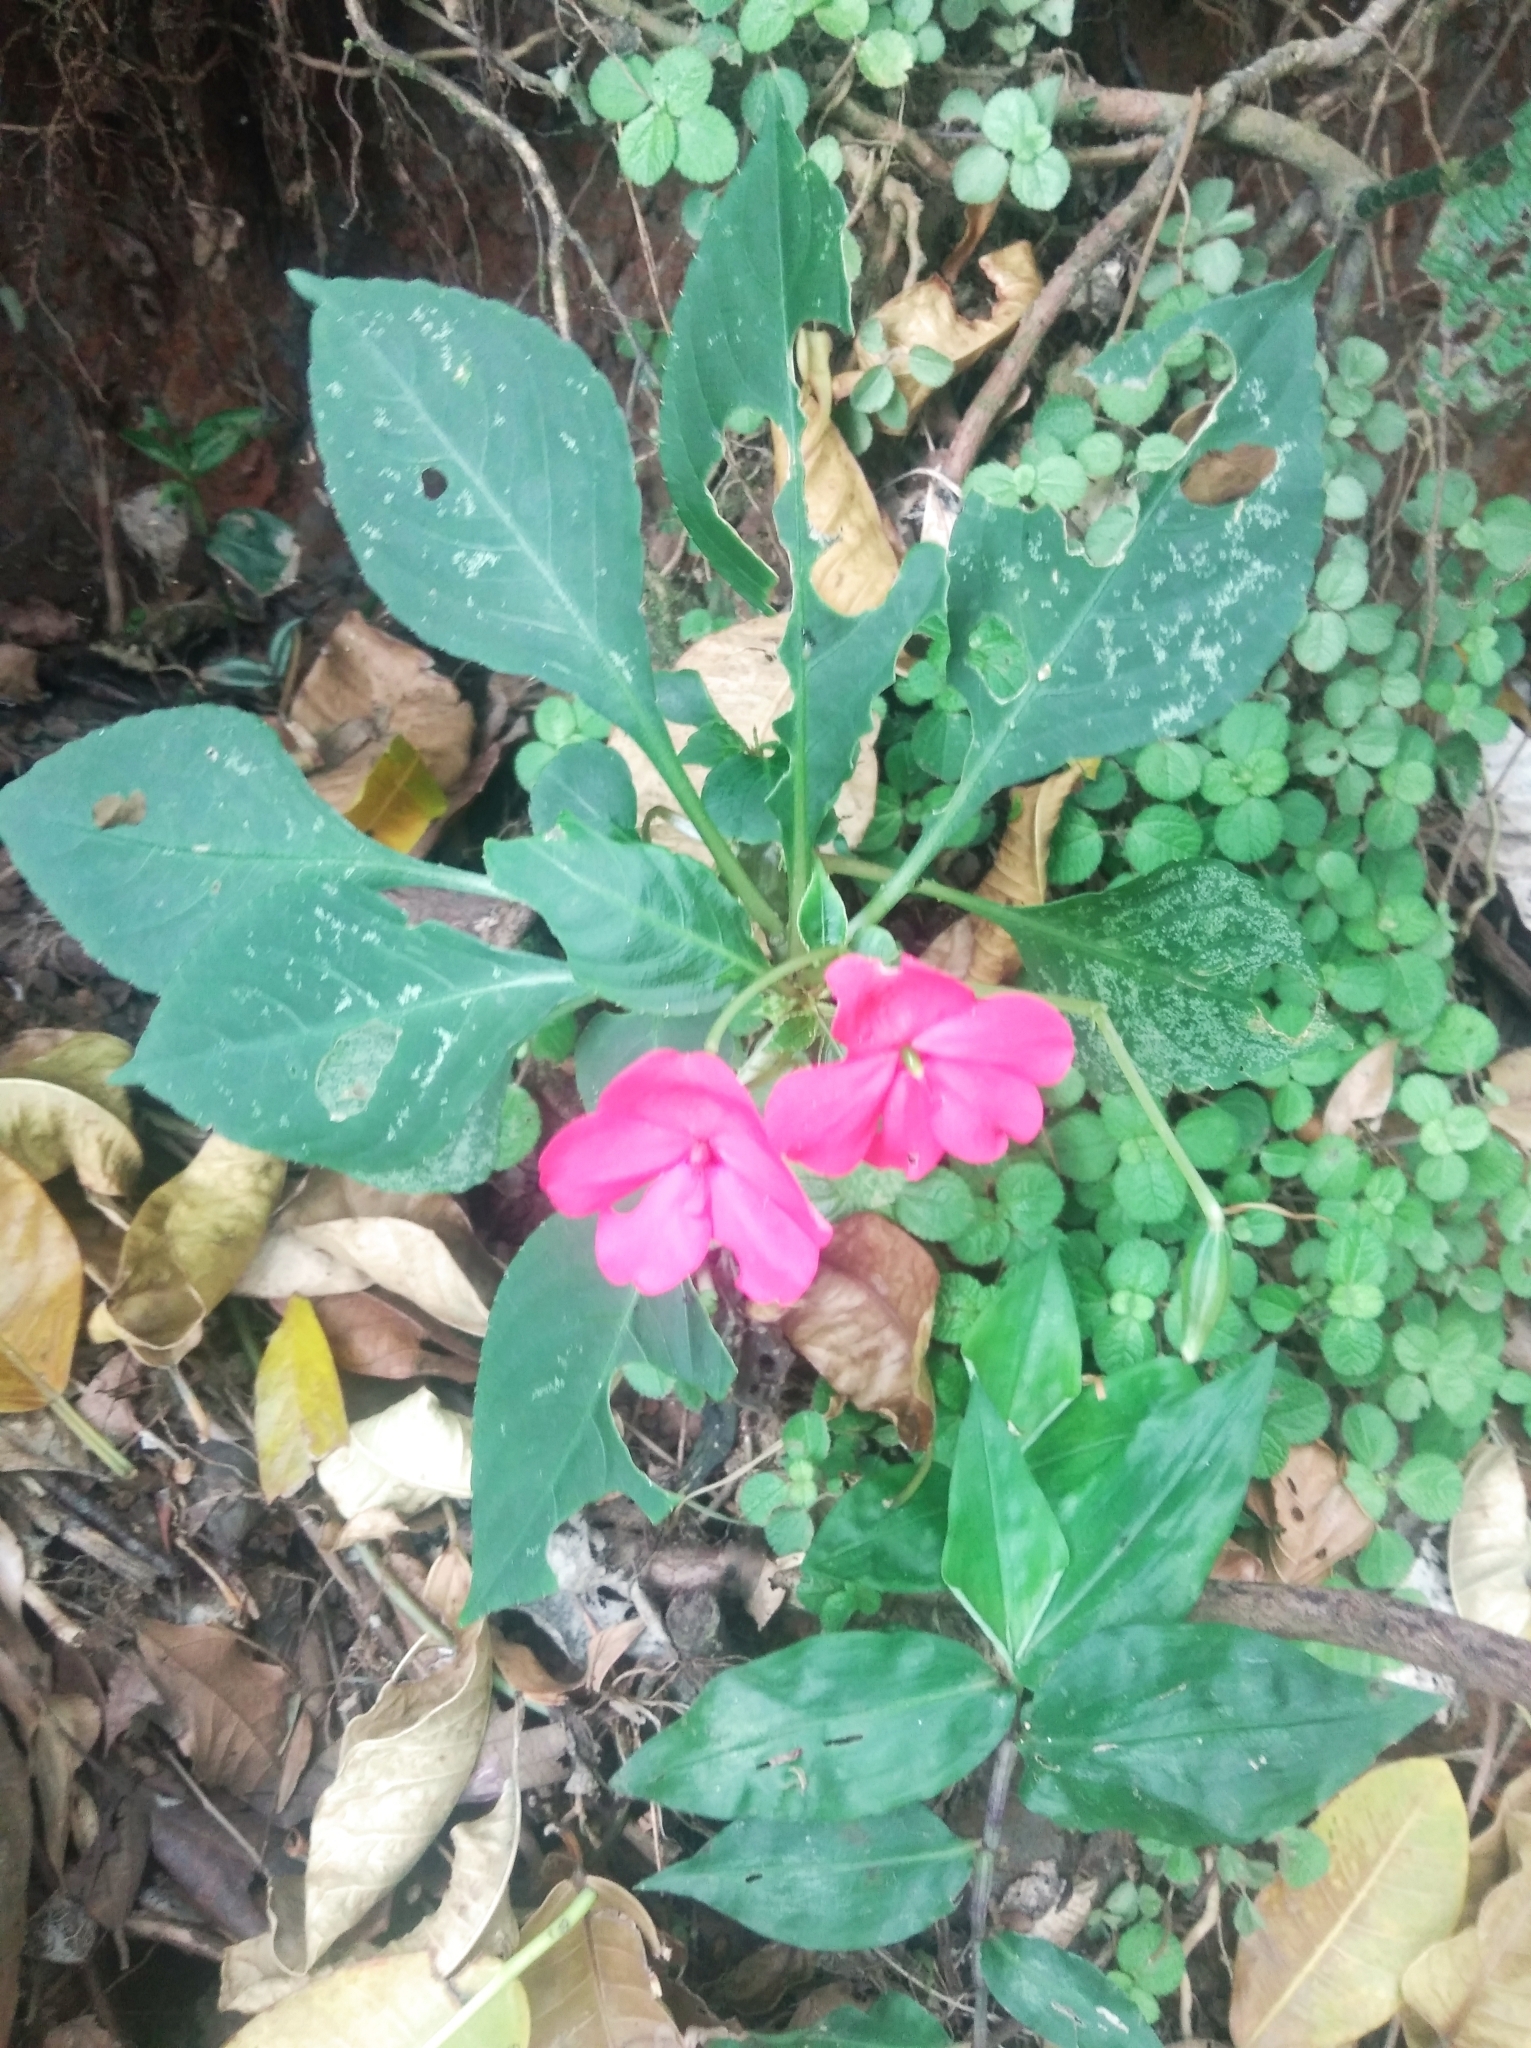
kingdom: Plantae
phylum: Tracheophyta
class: Magnoliopsida
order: Ericales
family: Balsaminaceae
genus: Impatiens
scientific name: Impatiens walleriana
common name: Buzzy lizzy
